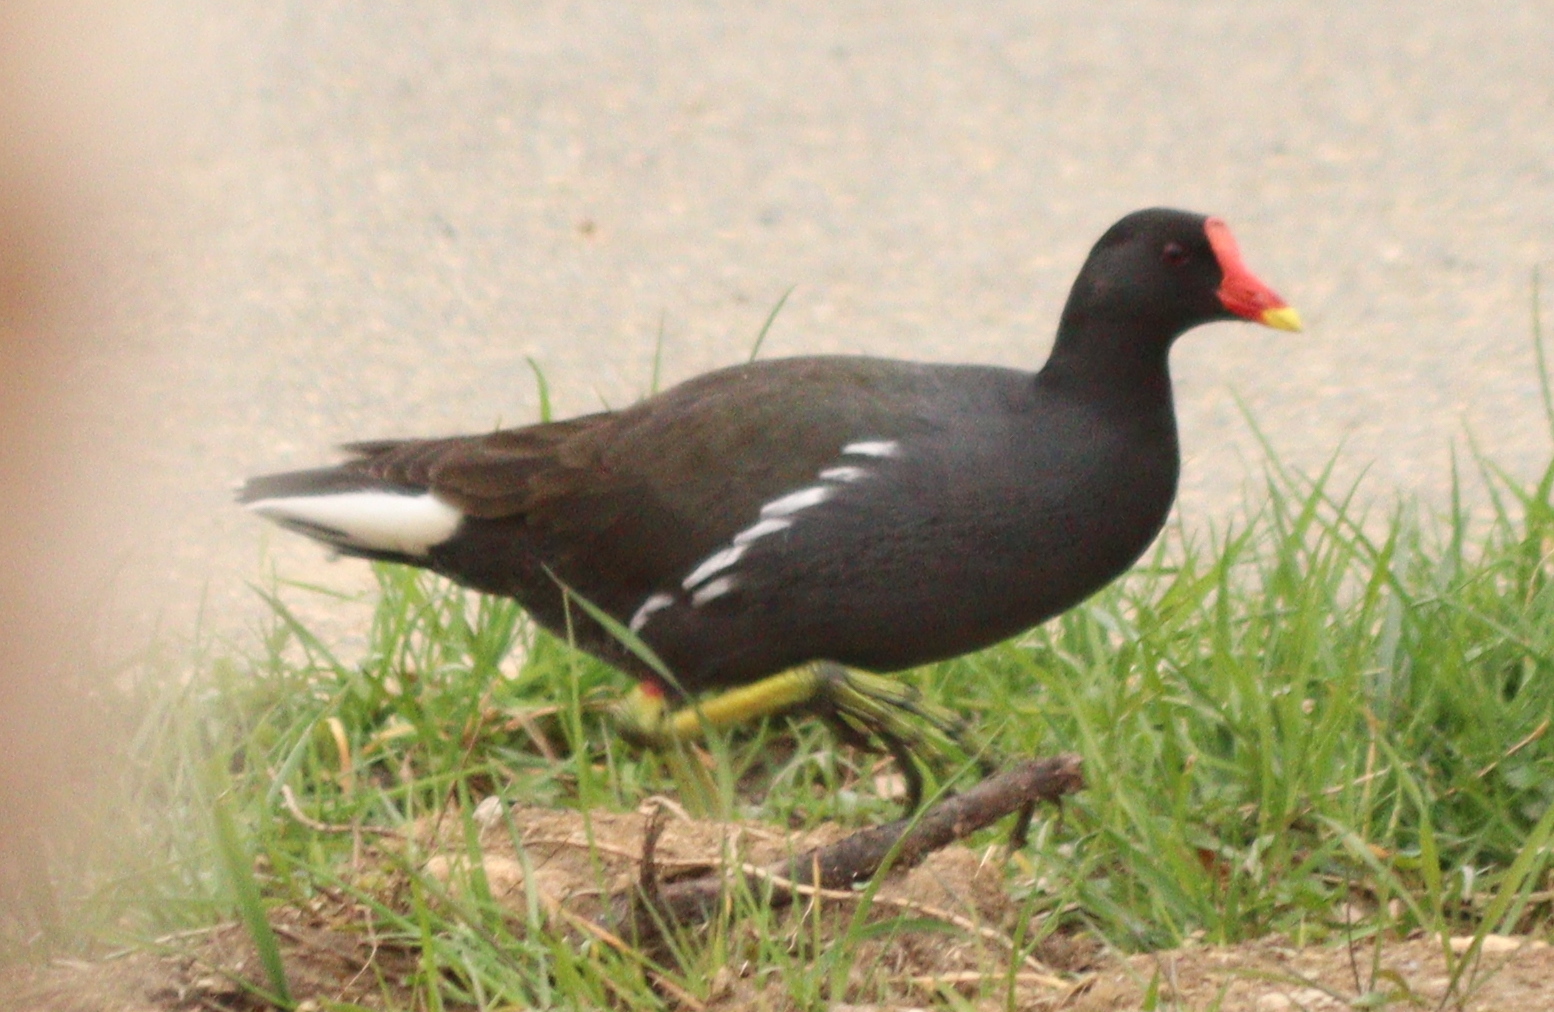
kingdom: Animalia
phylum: Chordata
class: Aves
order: Gruiformes
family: Rallidae
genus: Gallinula
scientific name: Gallinula chloropus
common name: Common moorhen
